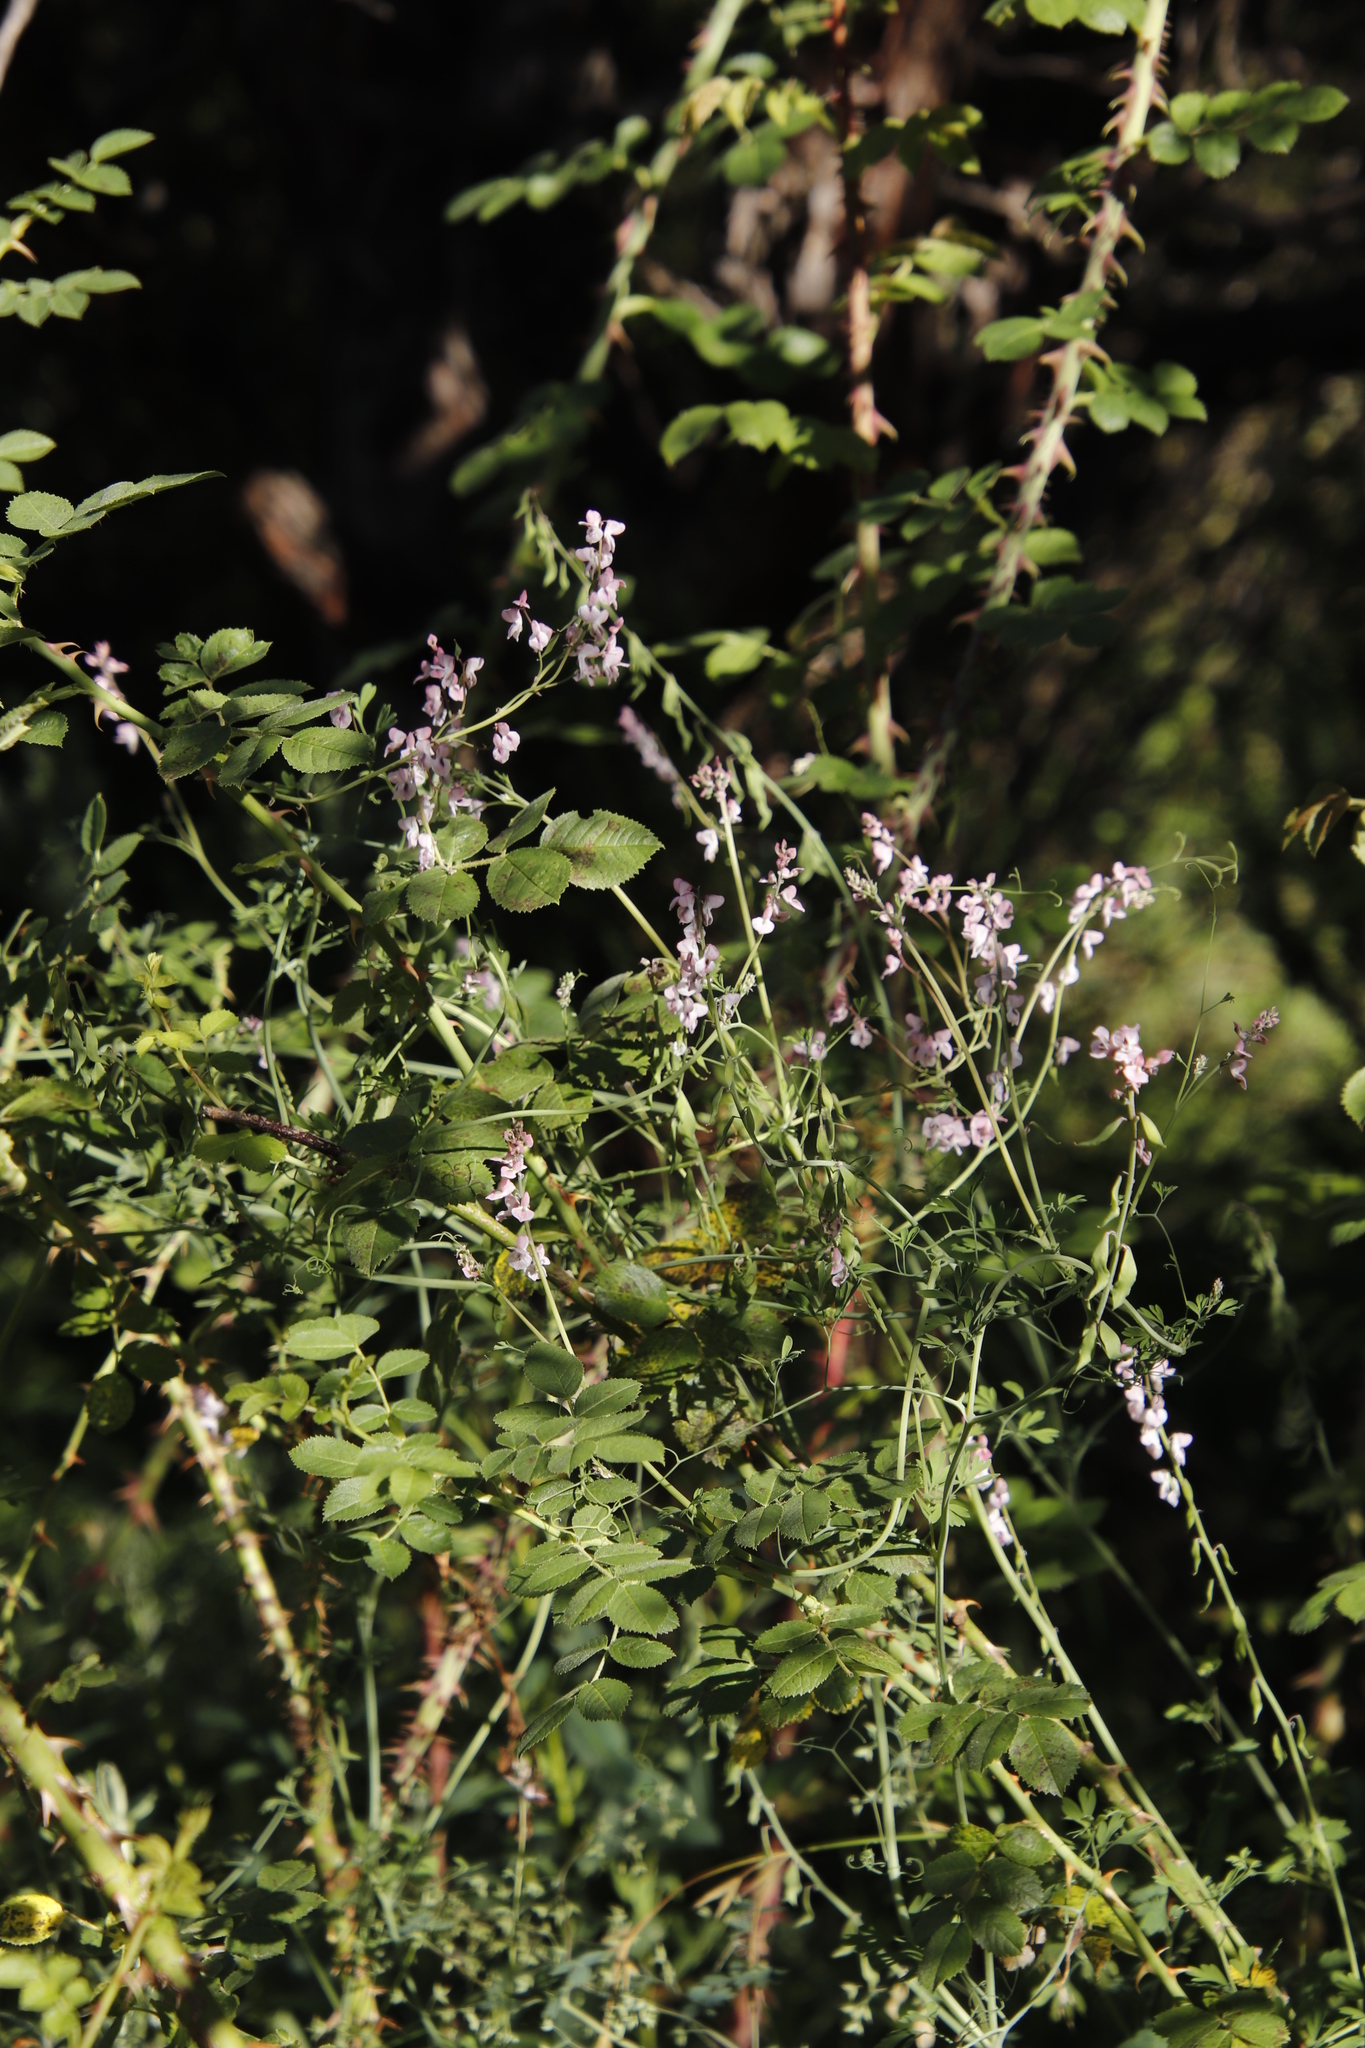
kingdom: Plantae
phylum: Tracheophyta
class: Magnoliopsida
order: Ranunculales
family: Papaveraceae
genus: Cysticapnos
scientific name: Cysticapnos pruinosa
